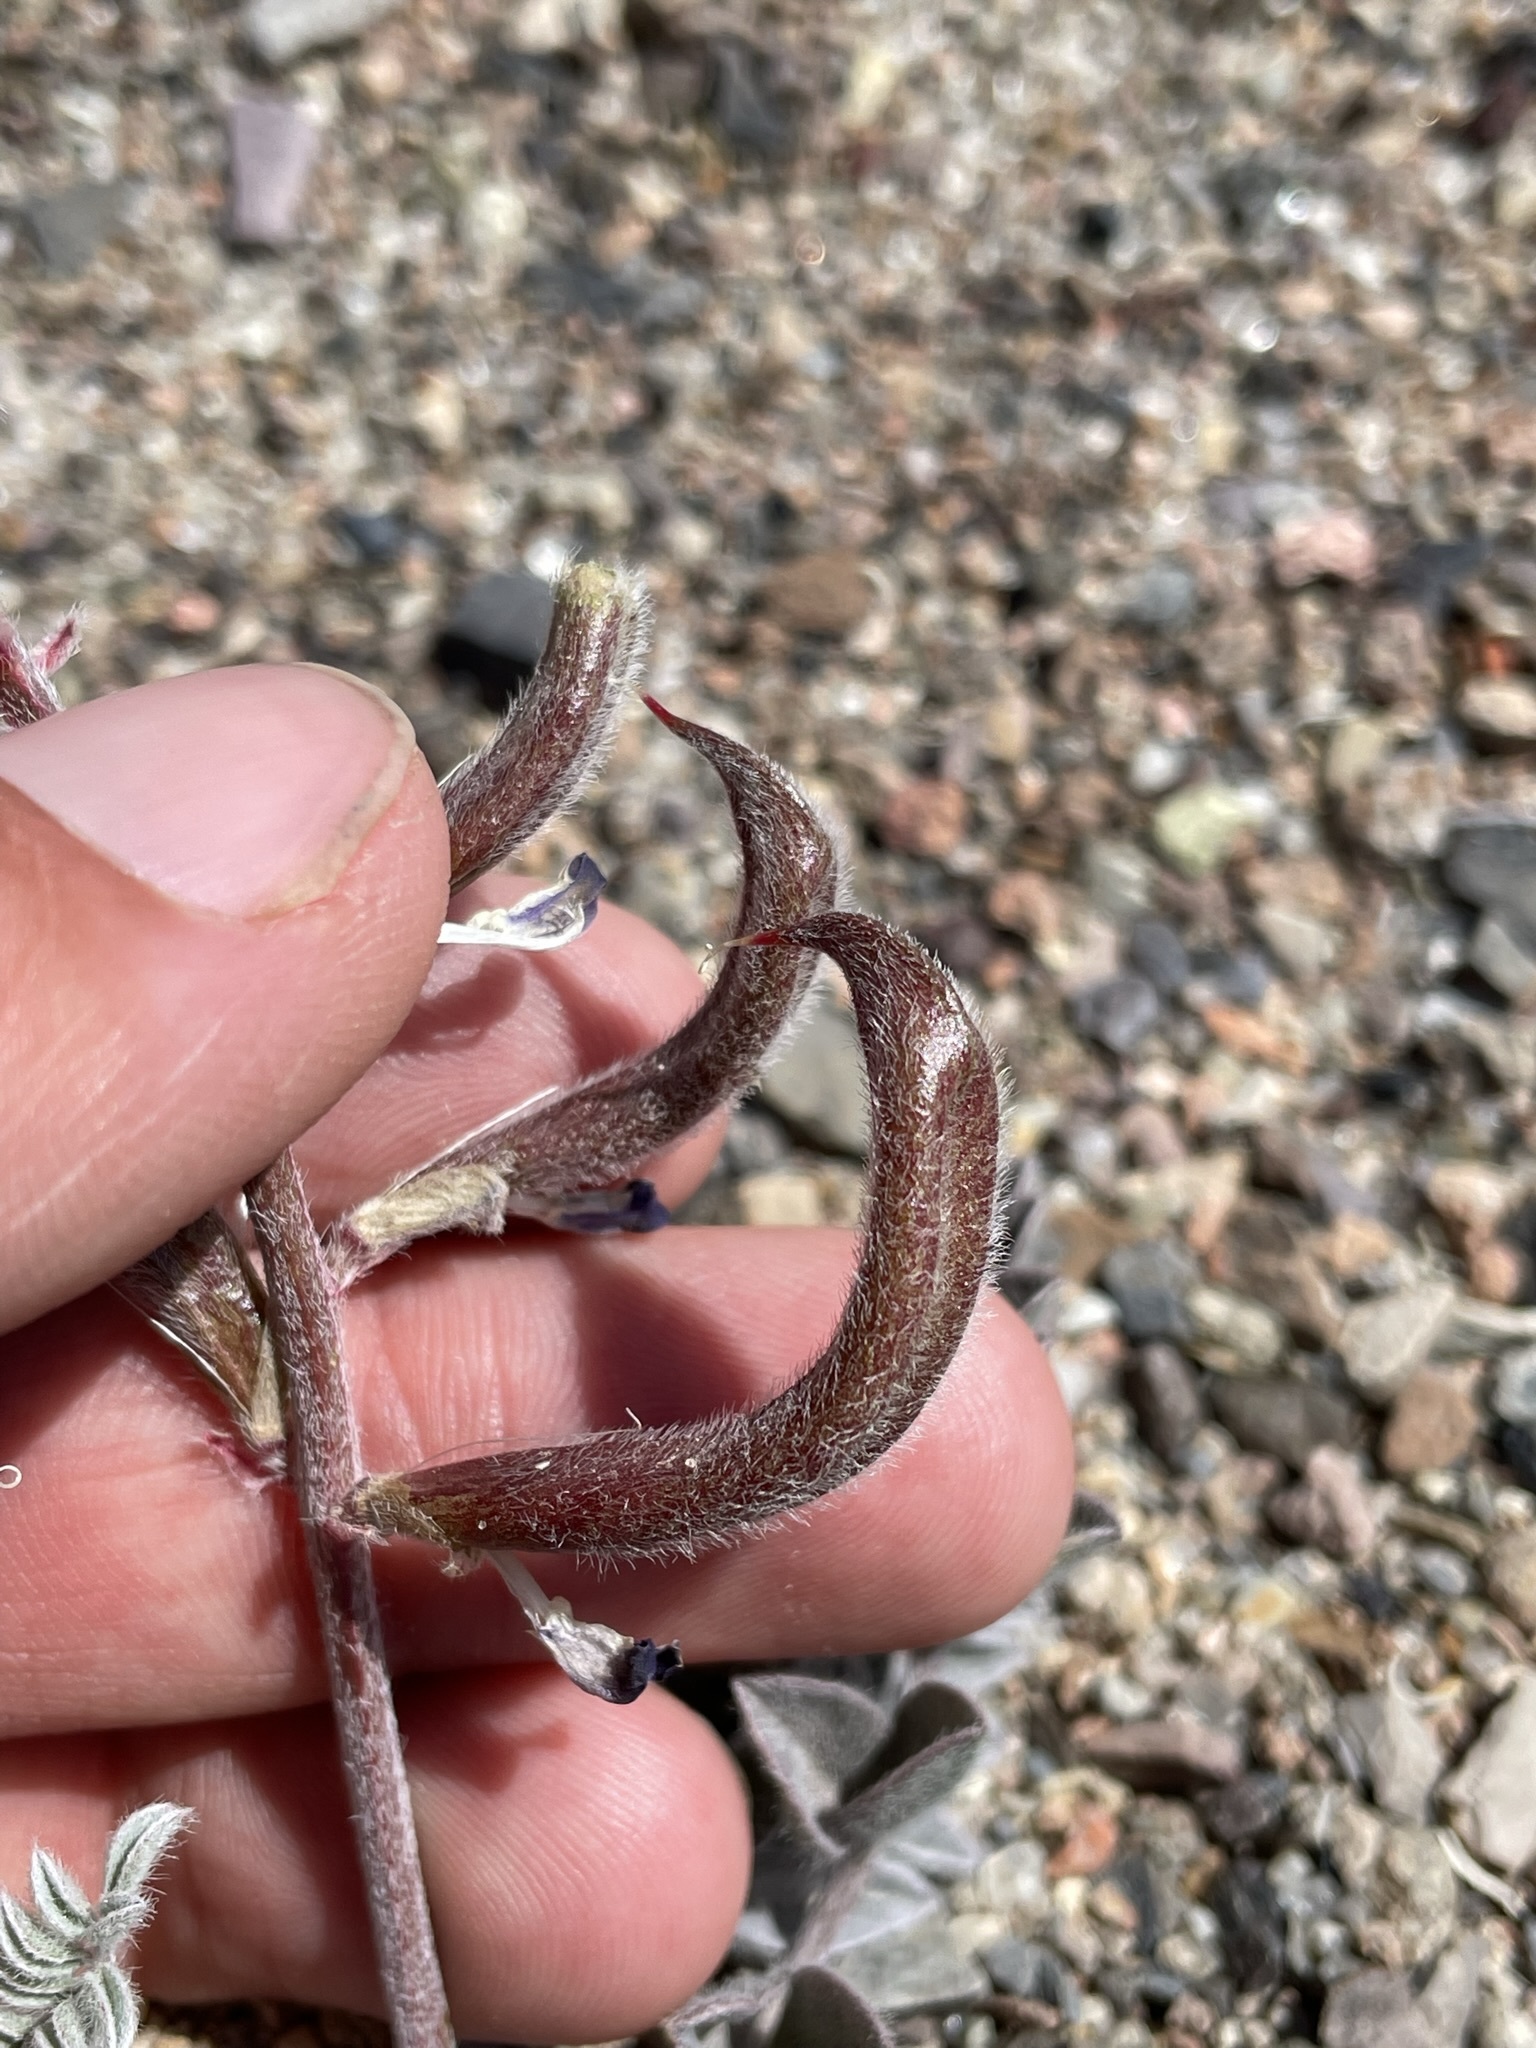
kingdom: Plantae
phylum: Tracheophyta
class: Magnoliopsida
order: Fabales
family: Fabaceae
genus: Astragalus
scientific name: Astragalus layneae
